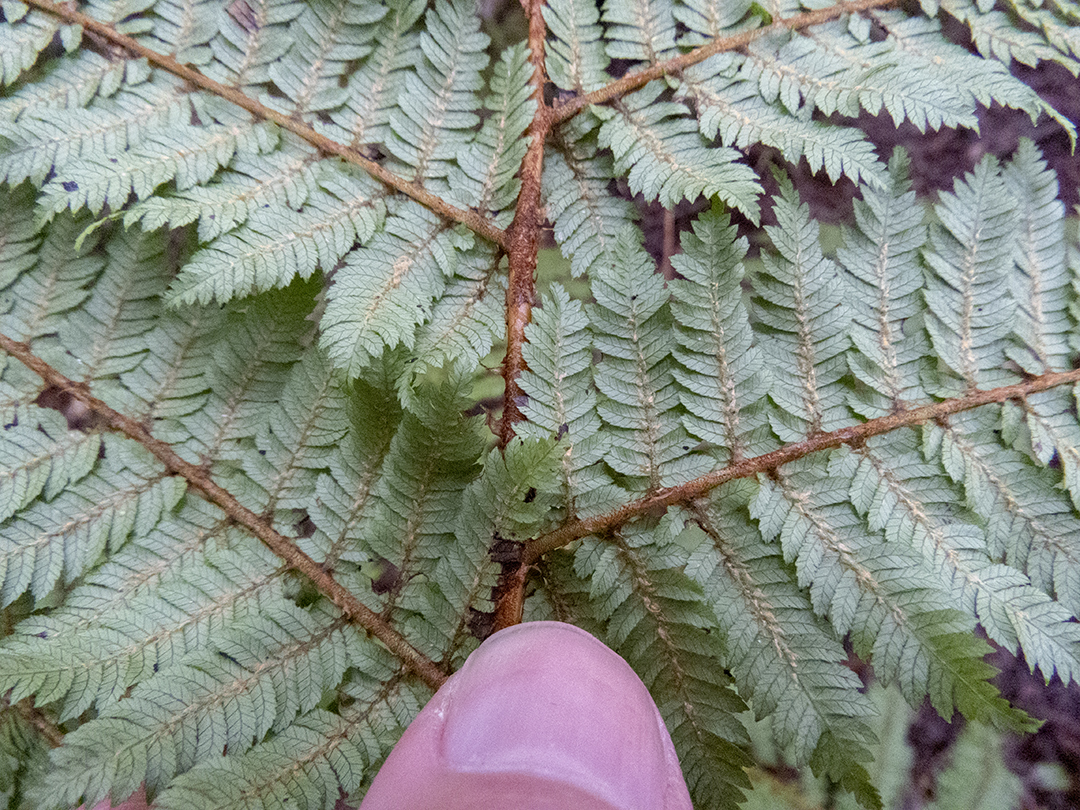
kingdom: Plantae
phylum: Tracheophyta
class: Polypodiopsida
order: Cyatheales
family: Cyatheaceae
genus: Alsophila
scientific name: Alsophila smithii
